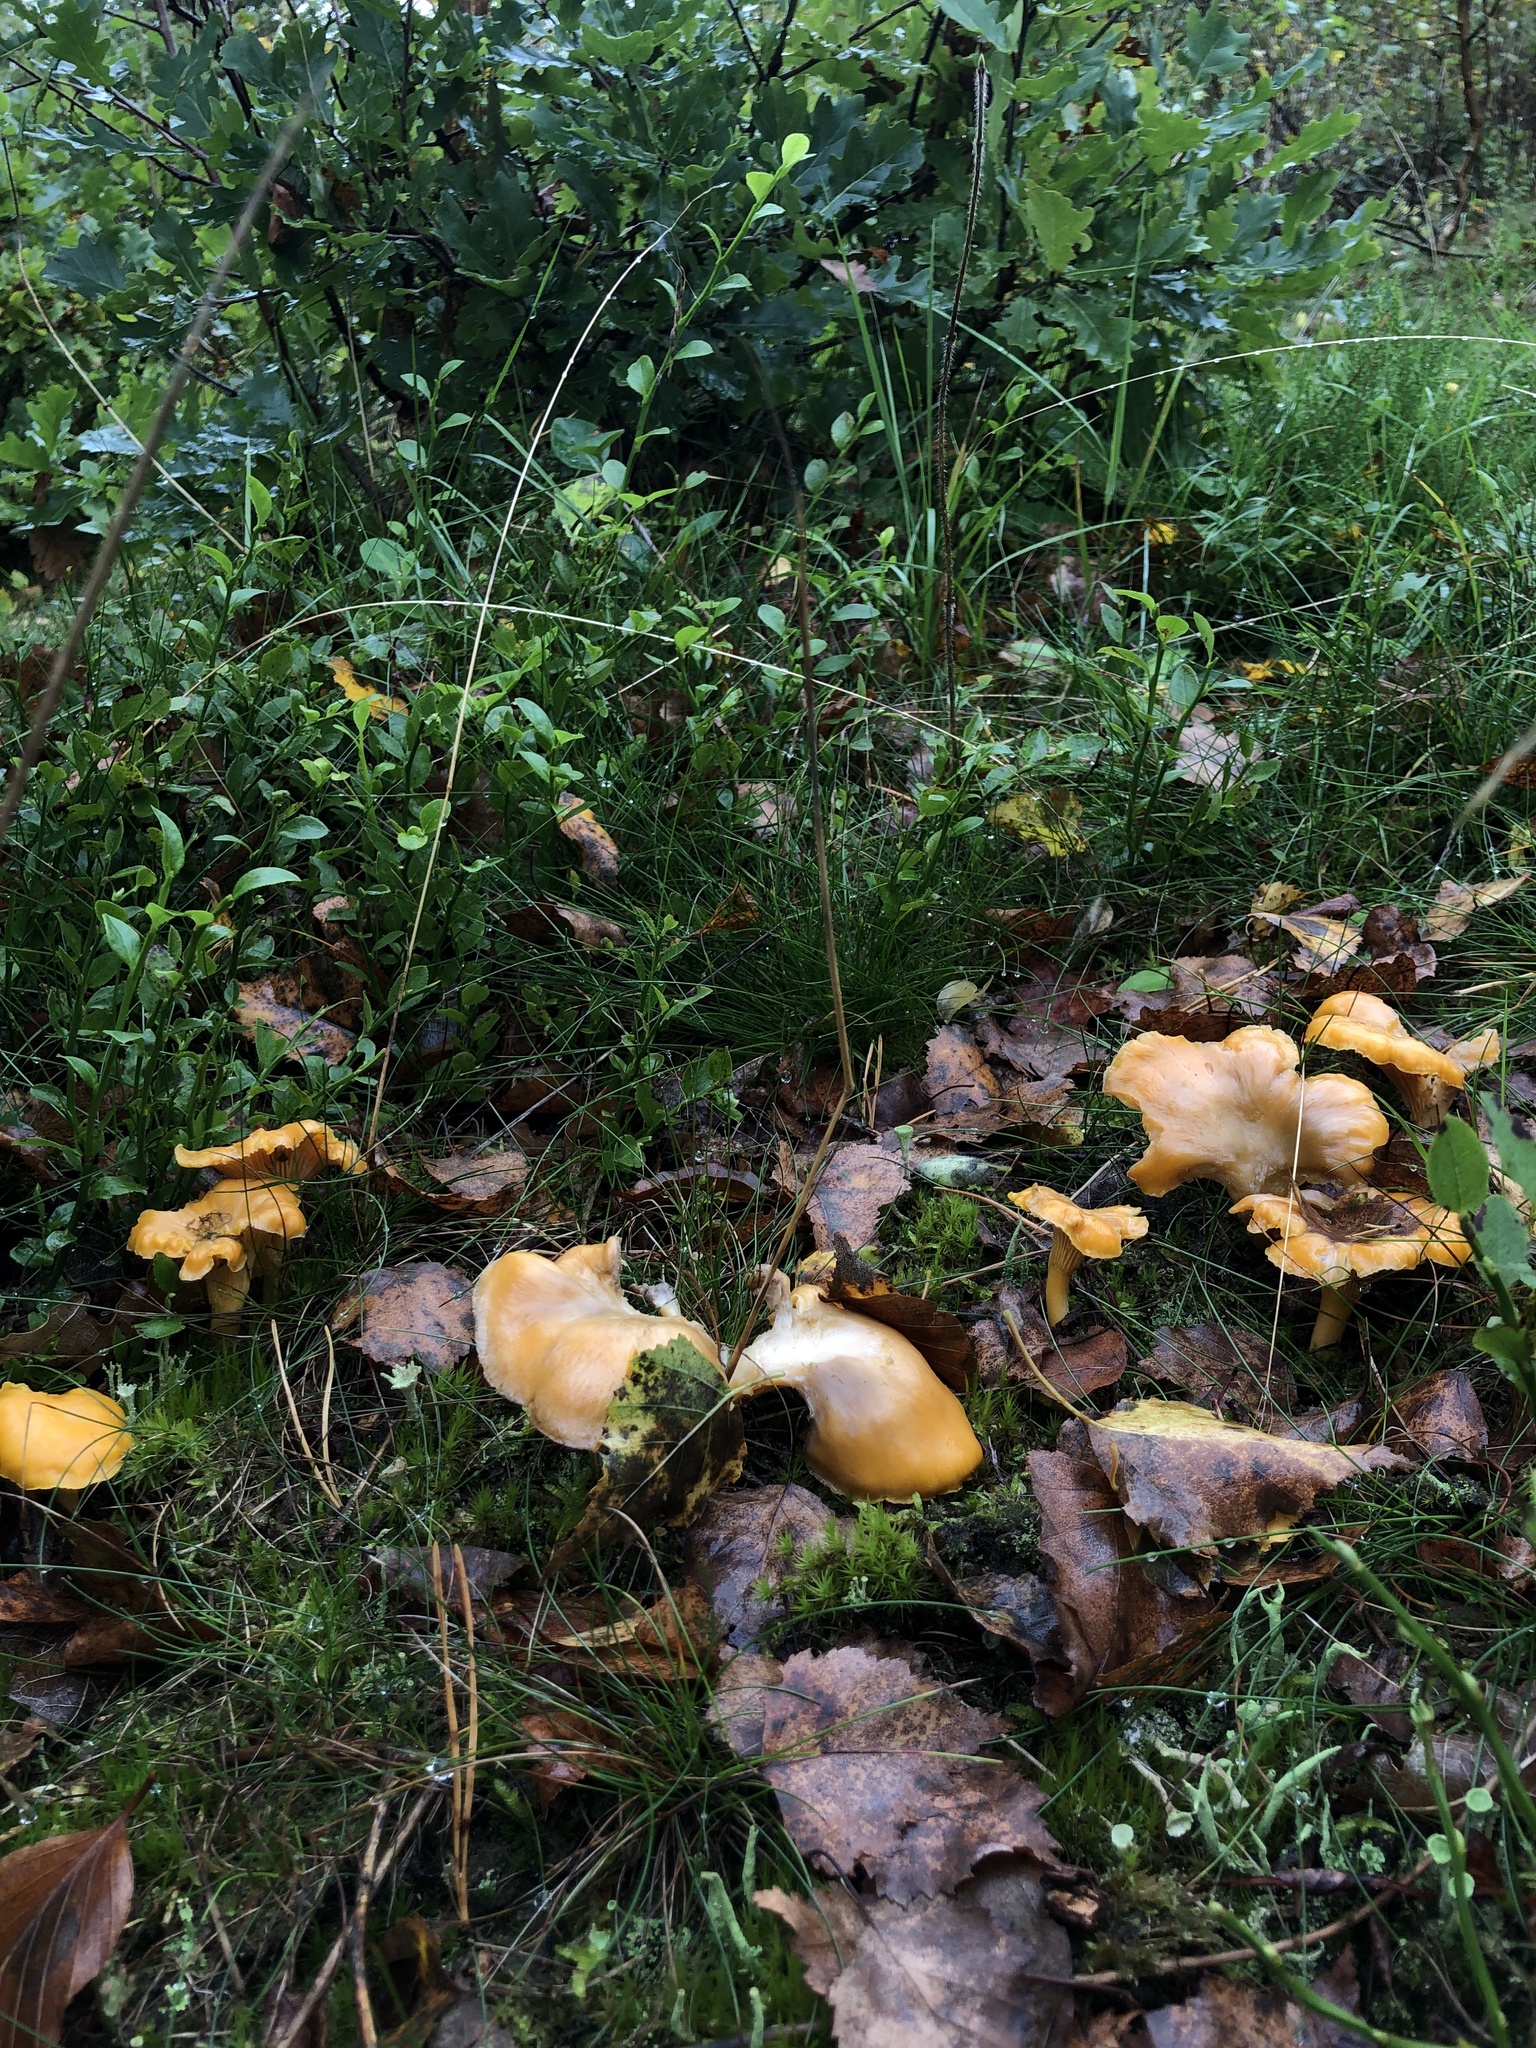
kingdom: Fungi
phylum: Basidiomycota
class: Agaricomycetes
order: Cantharellales
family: Hydnaceae
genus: Cantharellus
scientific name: Cantharellus cibarius
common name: Chanterelle
